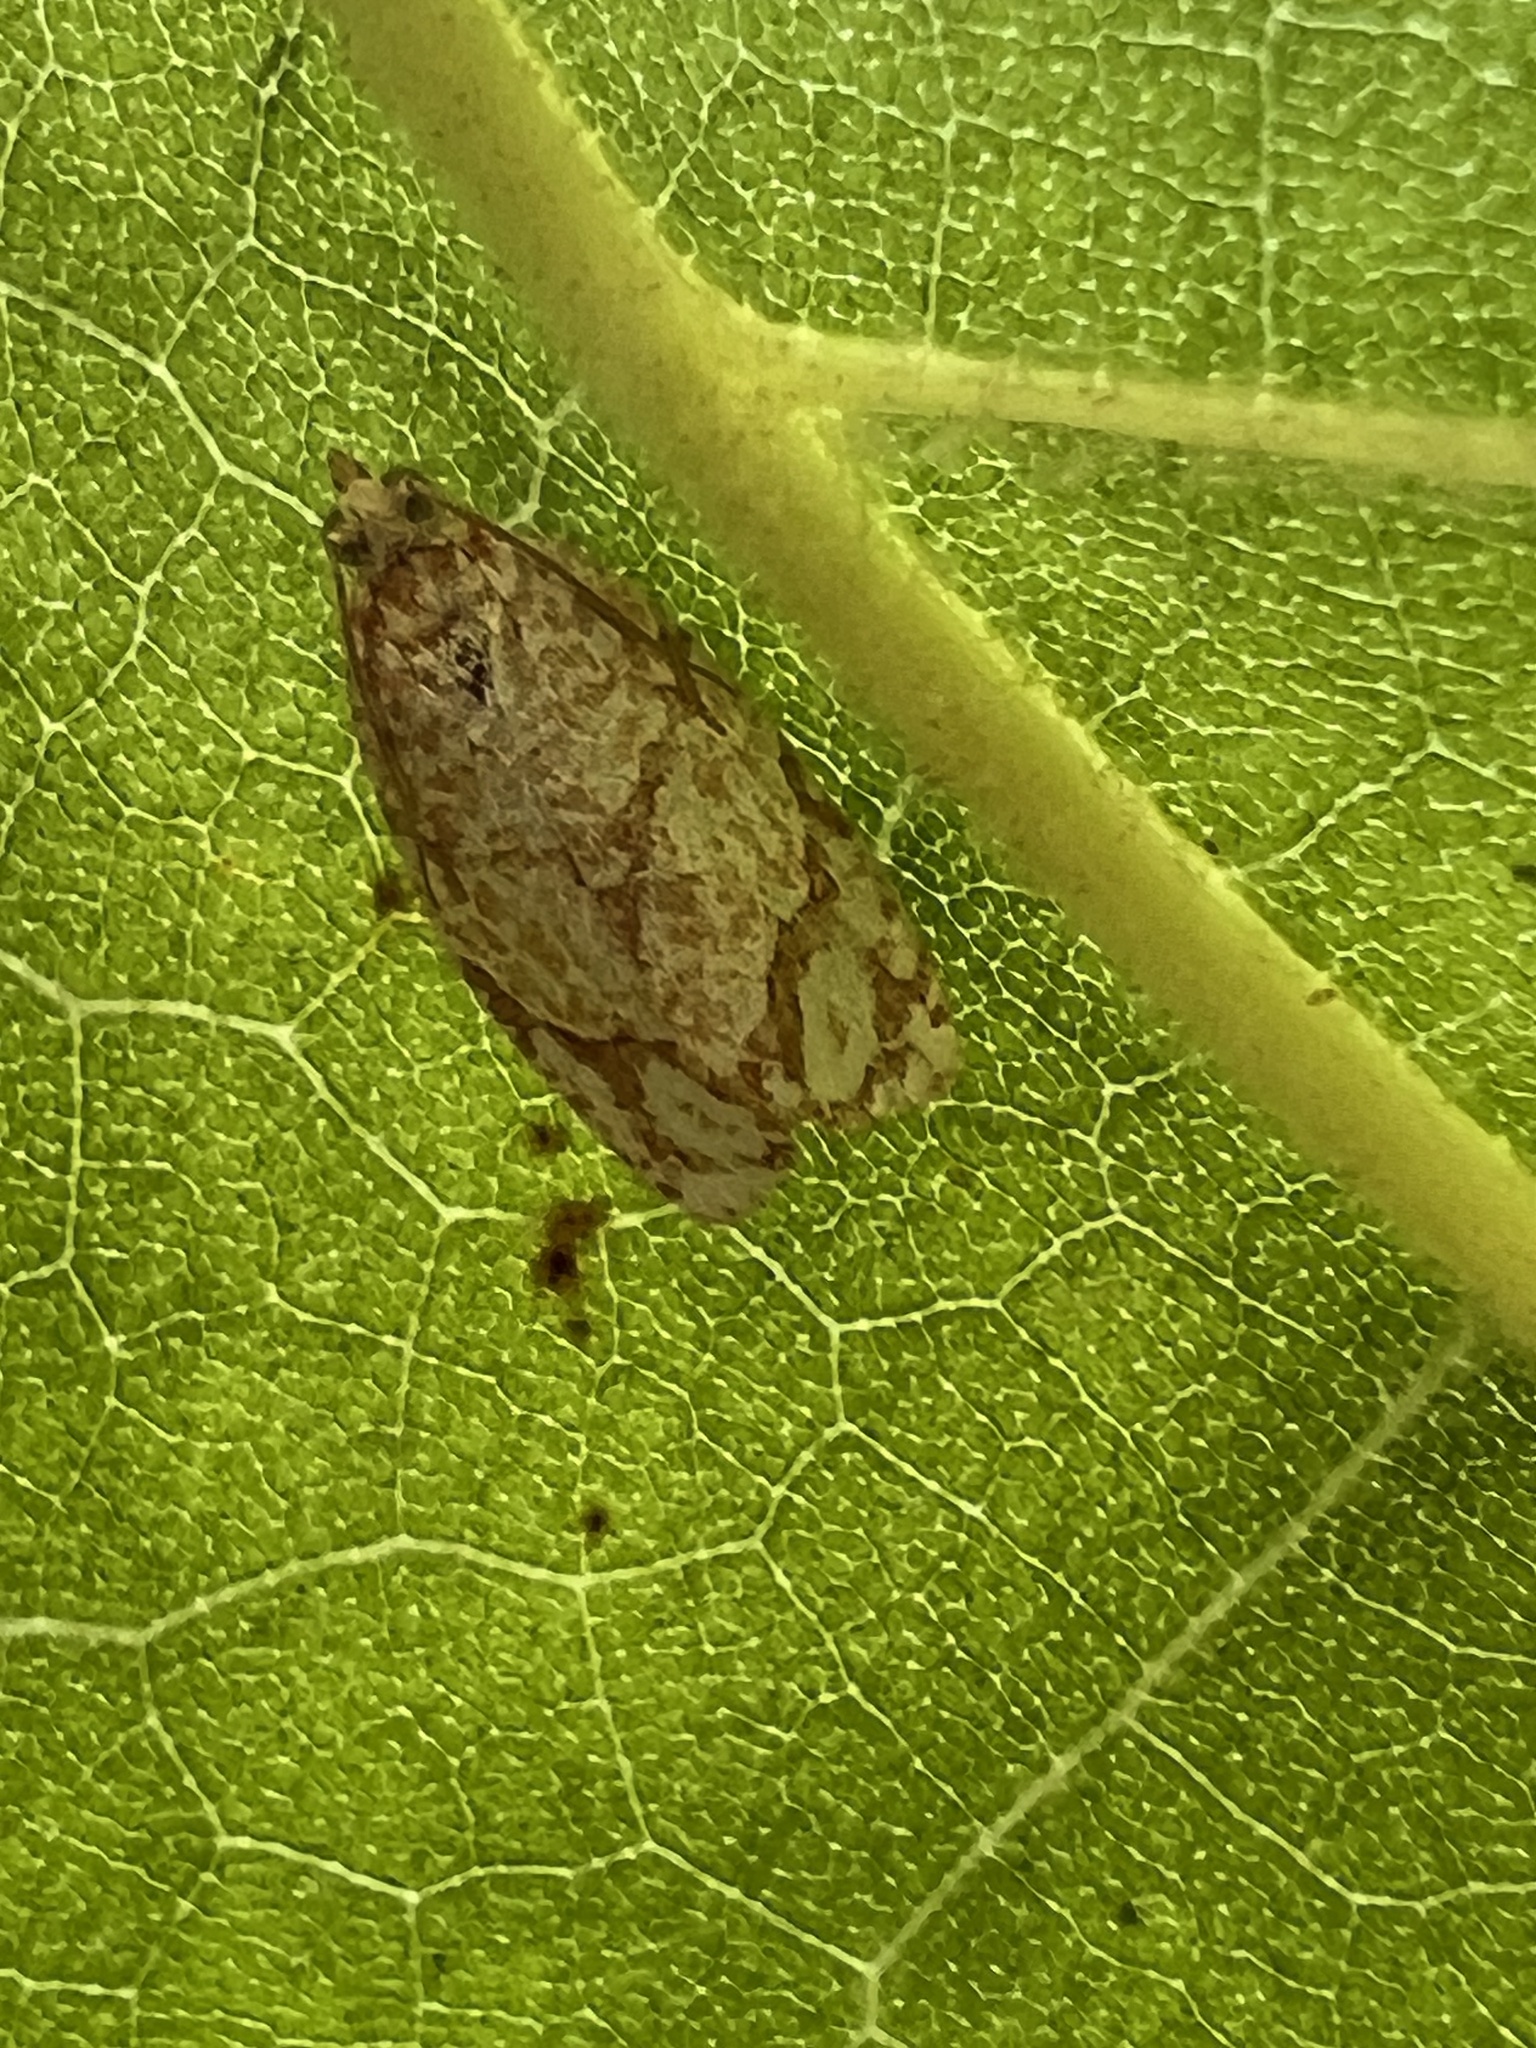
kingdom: Animalia
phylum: Arthropoda
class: Insecta
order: Lepidoptera
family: Tortricidae
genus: Argyrotaenia
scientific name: Argyrotaenia quercifoliana
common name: Yellow-winged oak leafroller moth
